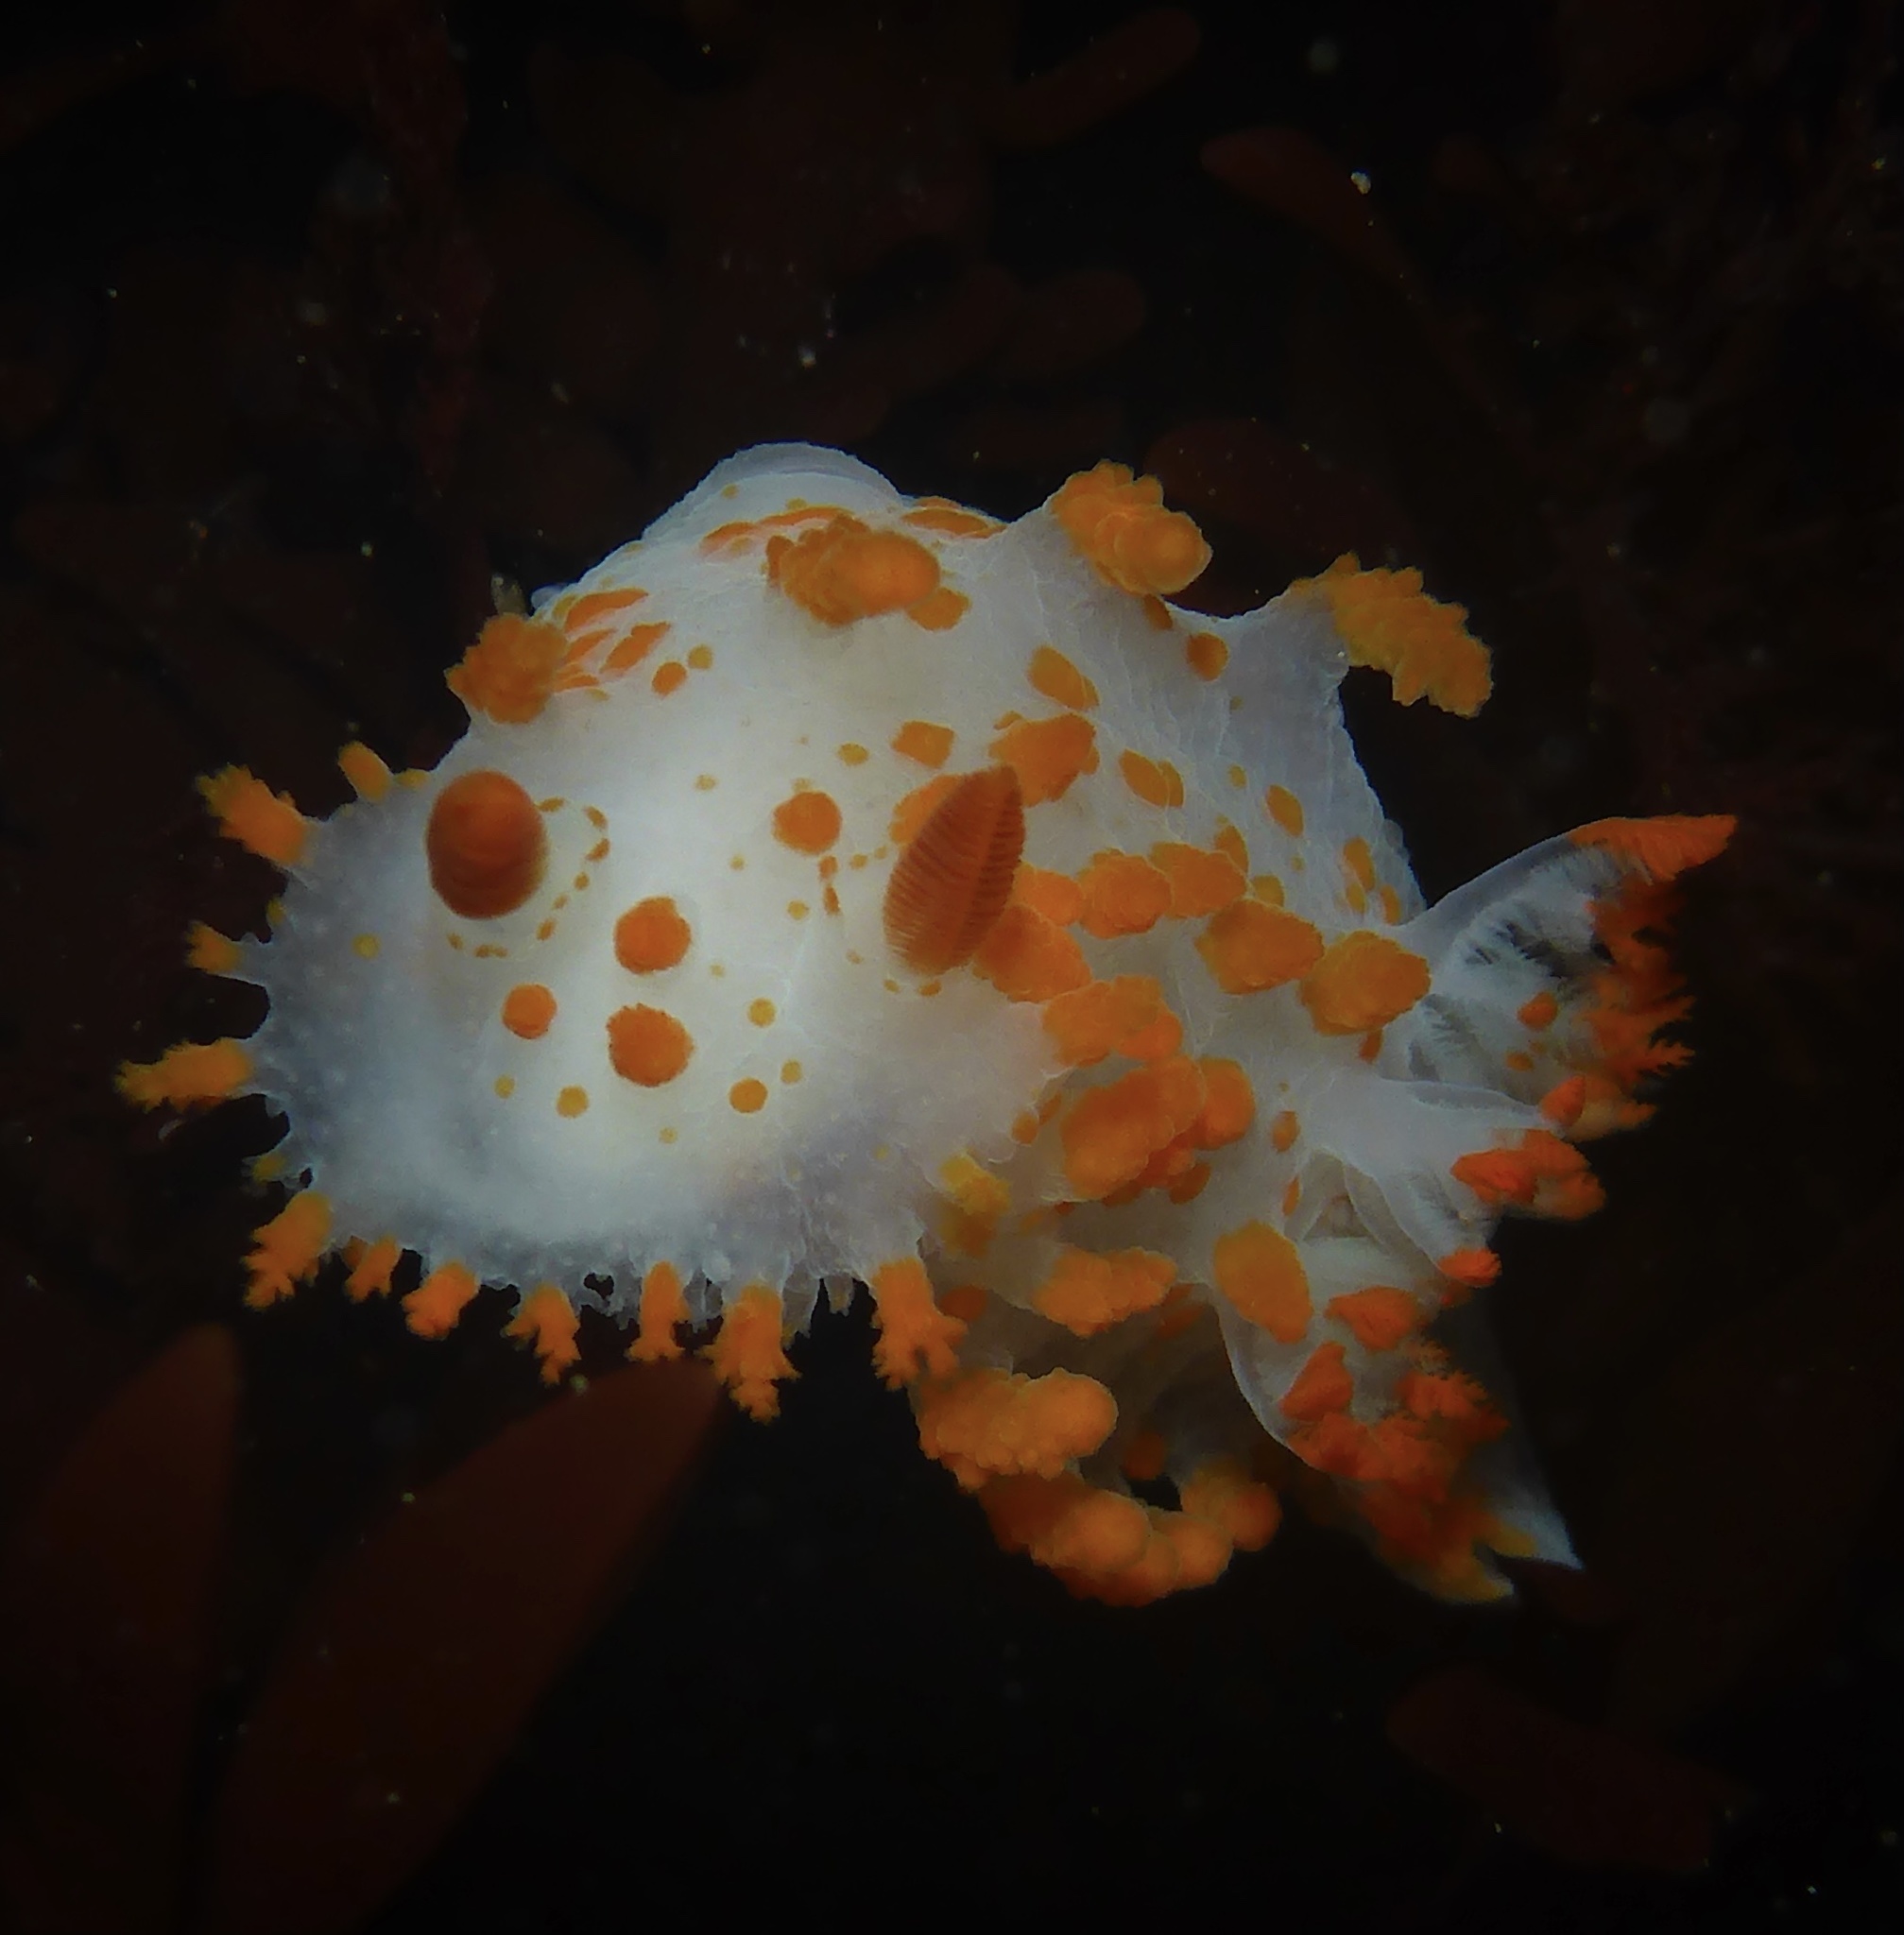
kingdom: Animalia
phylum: Mollusca
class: Gastropoda
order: Nudibranchia
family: Polyceridae
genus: Triopha
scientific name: Triopha catalinae
